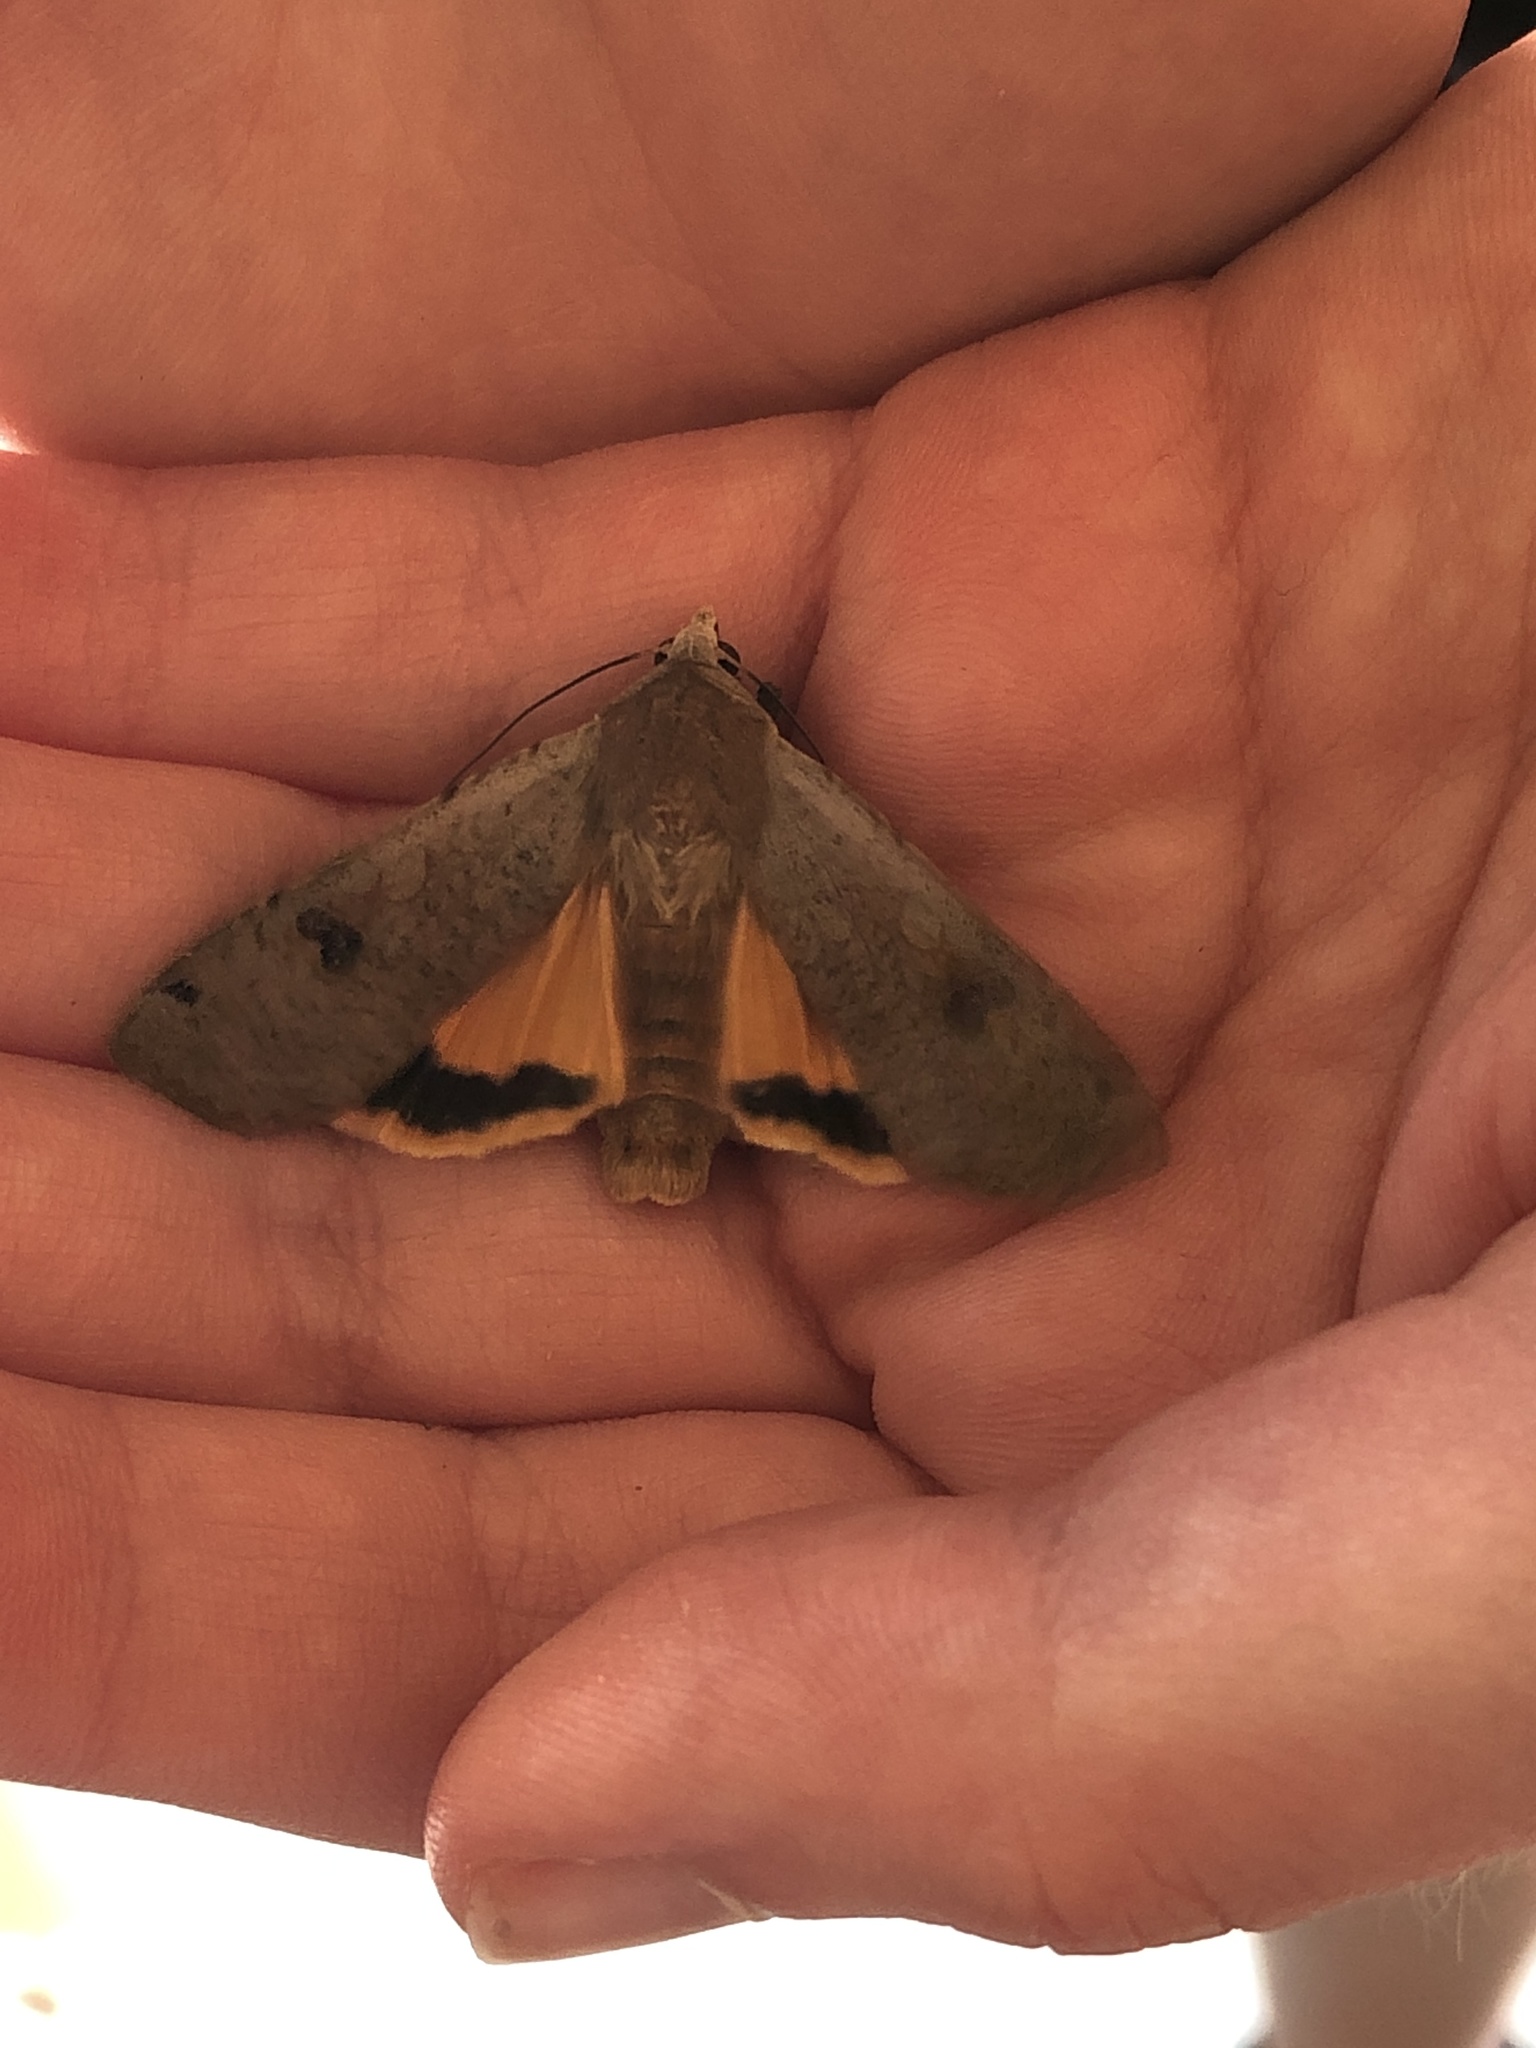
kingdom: Animalia
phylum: Arthropoda
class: Insecta
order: Lepidoptera
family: Noctuidae
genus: Noctua
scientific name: Noctua pronuba
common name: Large yellow underwing
